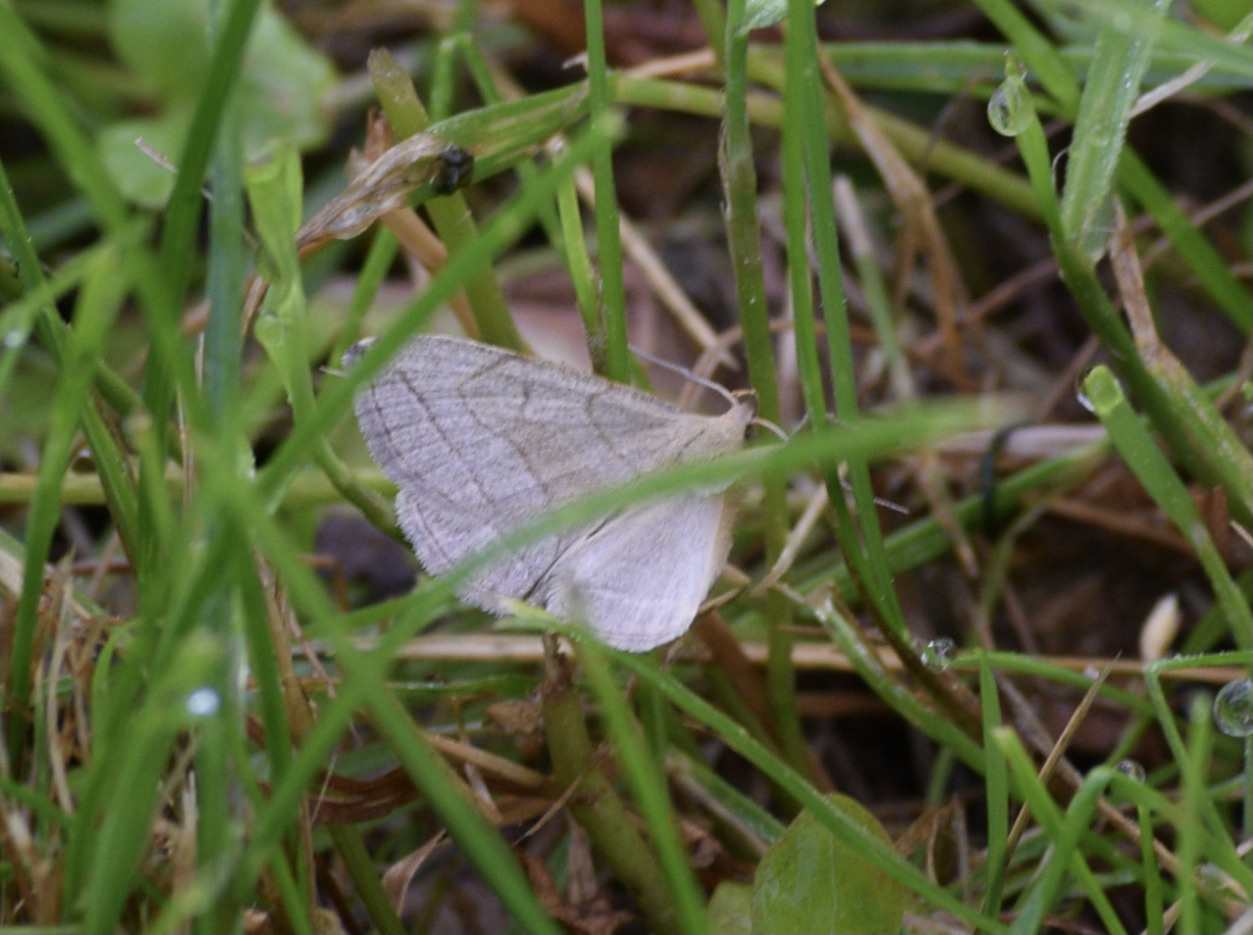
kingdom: Animalia
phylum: Arthropoda
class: Insecta
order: Lepidoptera
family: Erebidae
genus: Zanclognatha
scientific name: Zanclognatha pedipilalis
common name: Grayish fan-foot
